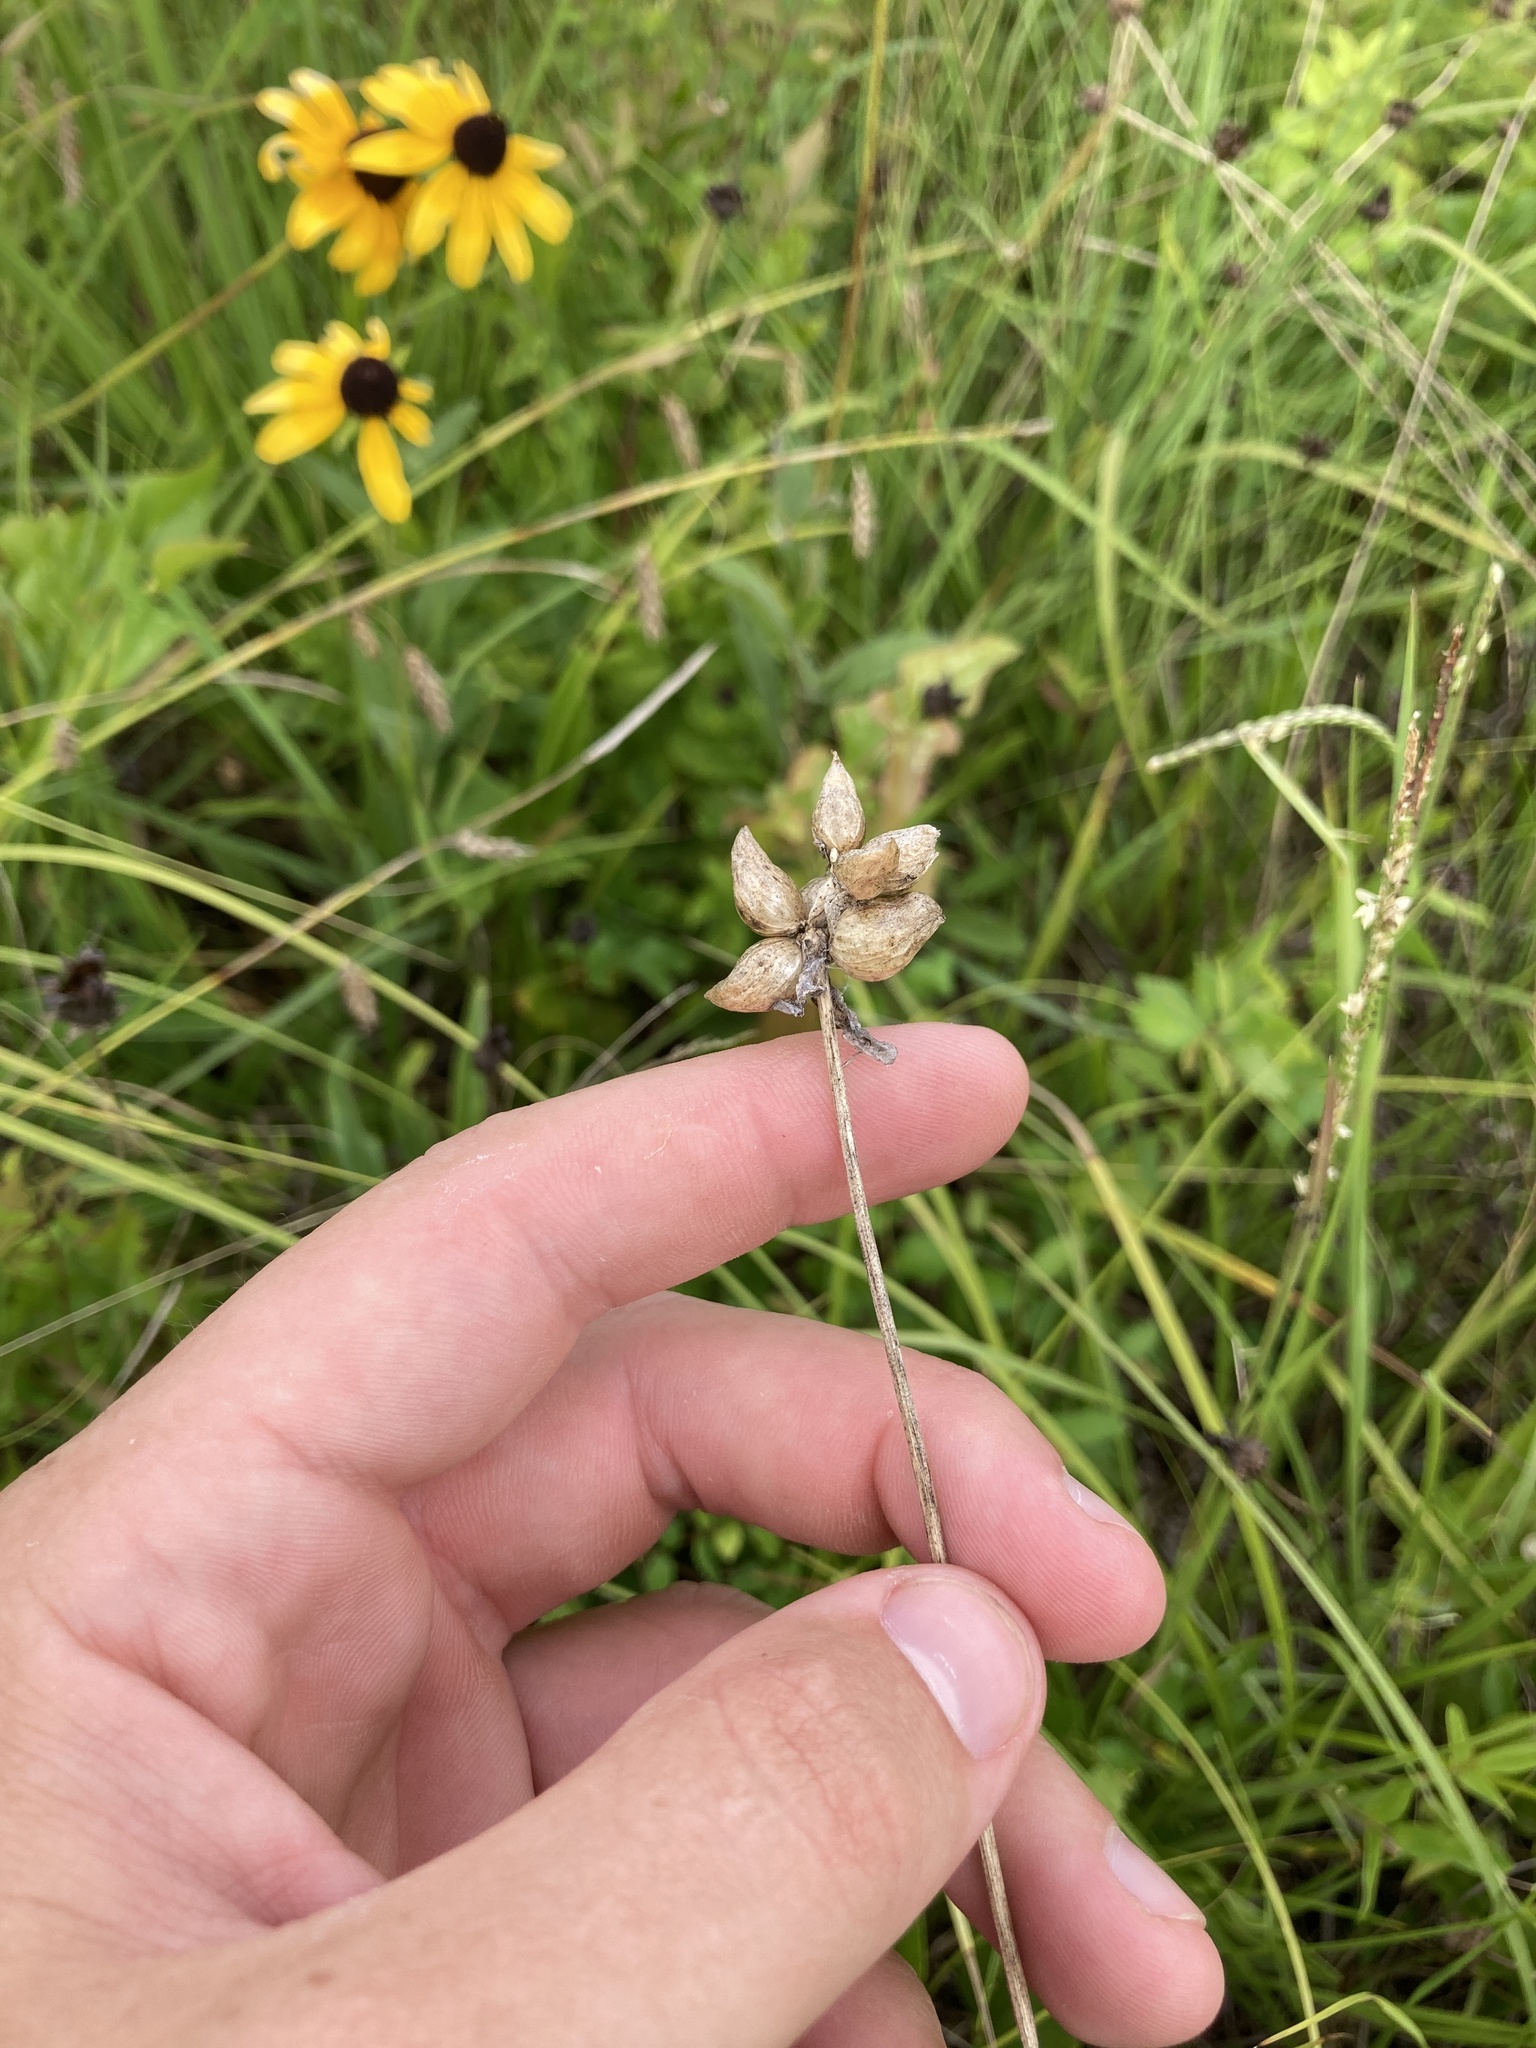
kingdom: Plantae
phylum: Tracheophyta
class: Liliopsida
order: Asparagales
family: Amaryllidaceae
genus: Allium
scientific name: Allium canadense
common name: Meadow garlic
